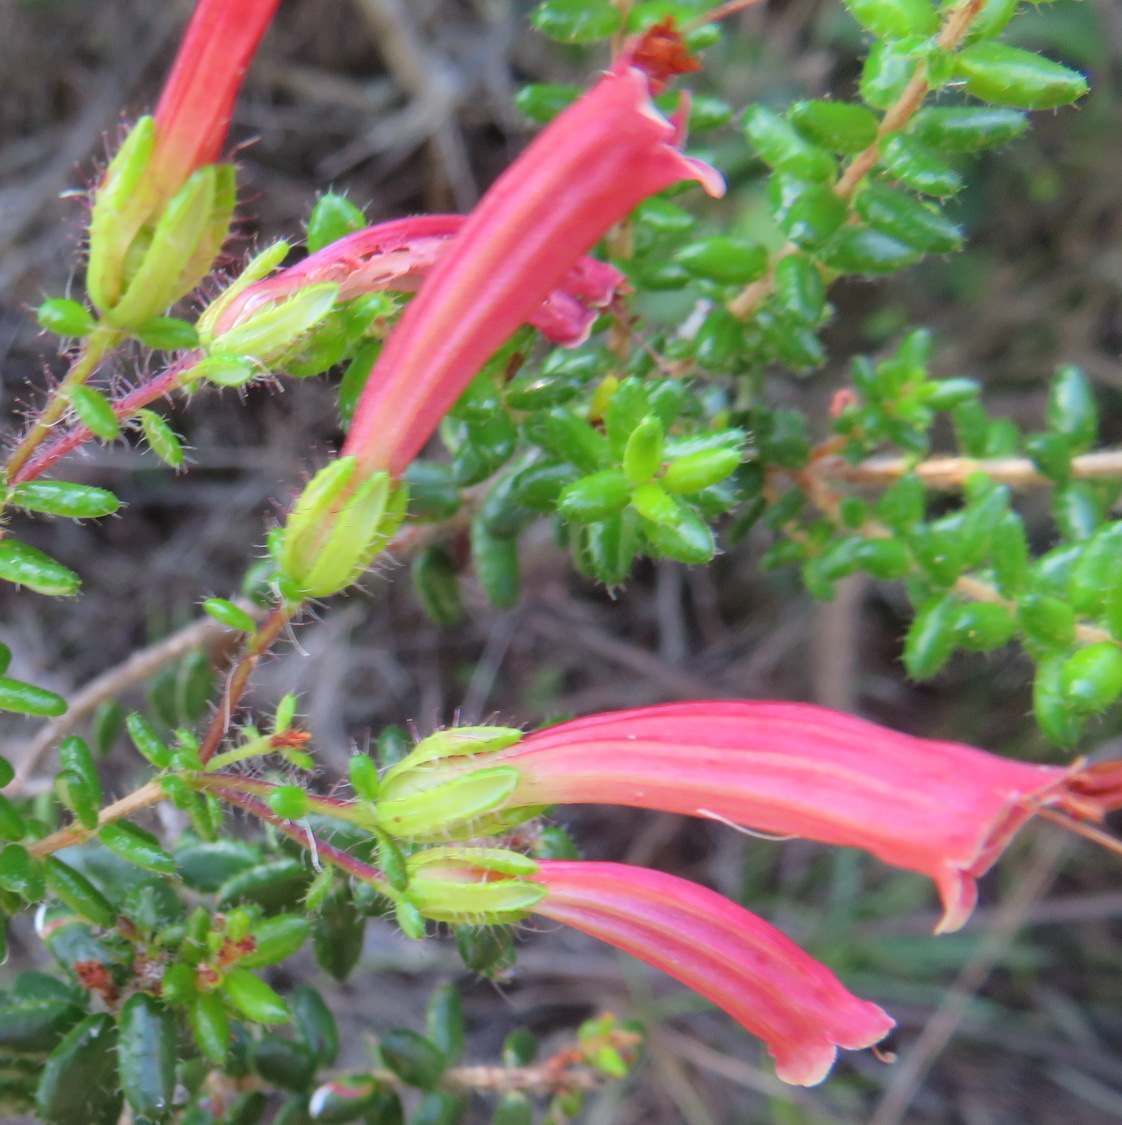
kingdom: Plantae
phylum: Tracheophyta
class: Magnoliopsida
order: Ericales
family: Ericaceae
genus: Erica
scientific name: Erica glandulosa
